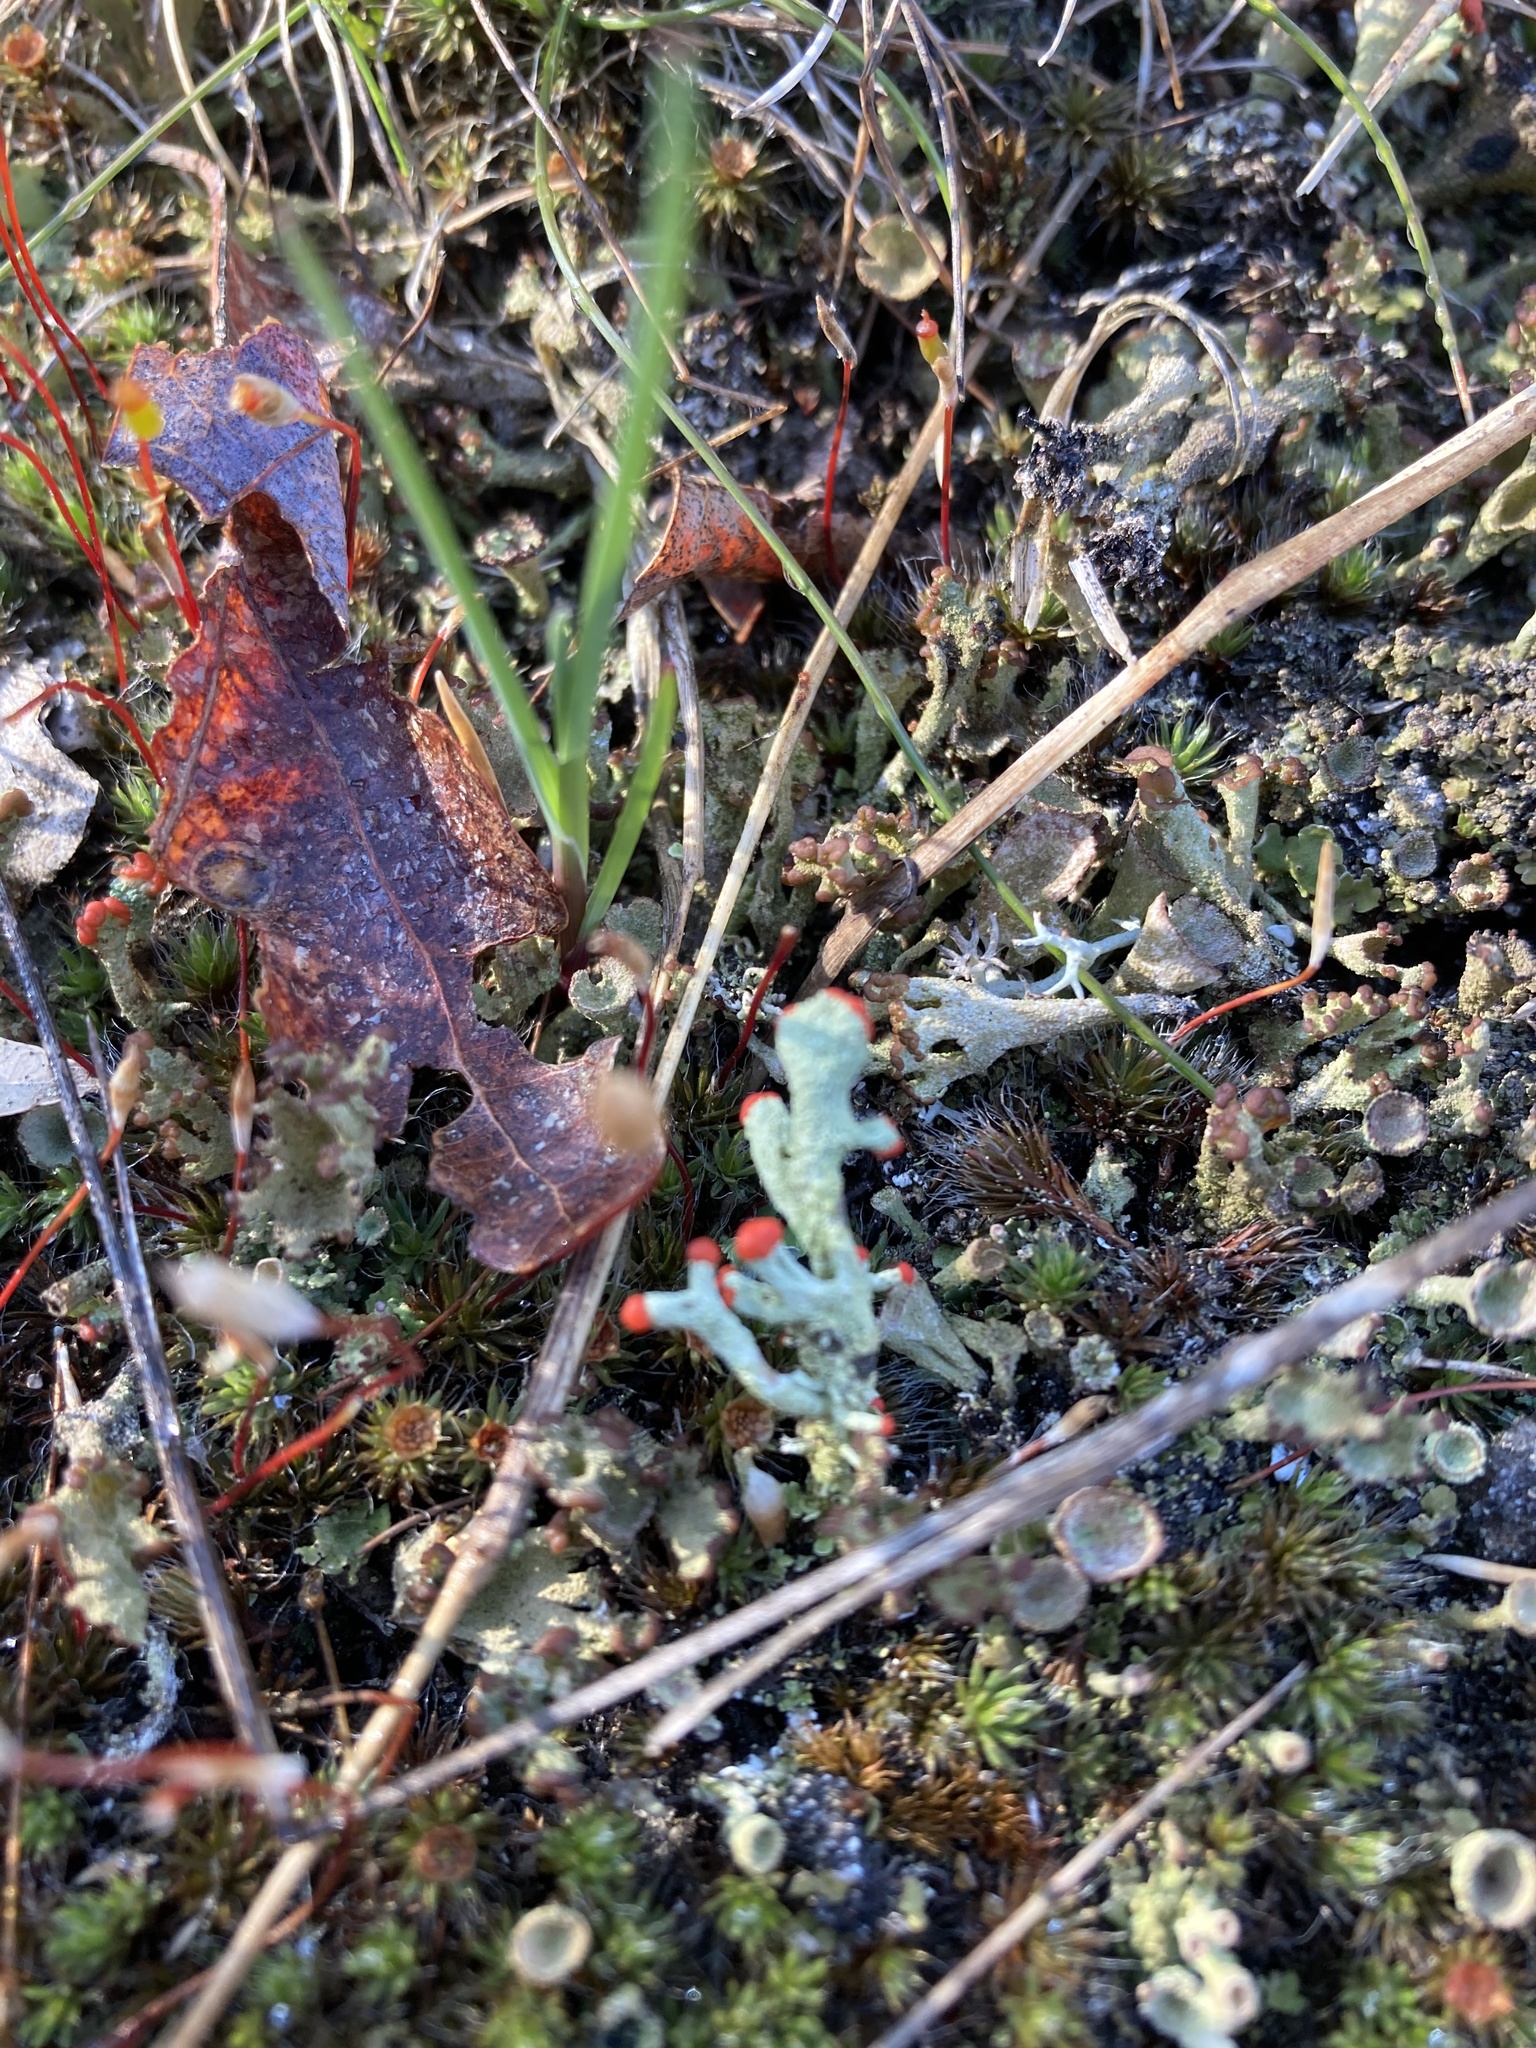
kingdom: Fungi
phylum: Ascomycota
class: Lecanoromycetes
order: Lecanorales
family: Cladoniaceae
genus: Cladonia
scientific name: Cladonia cristatella
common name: British soldier lichen
